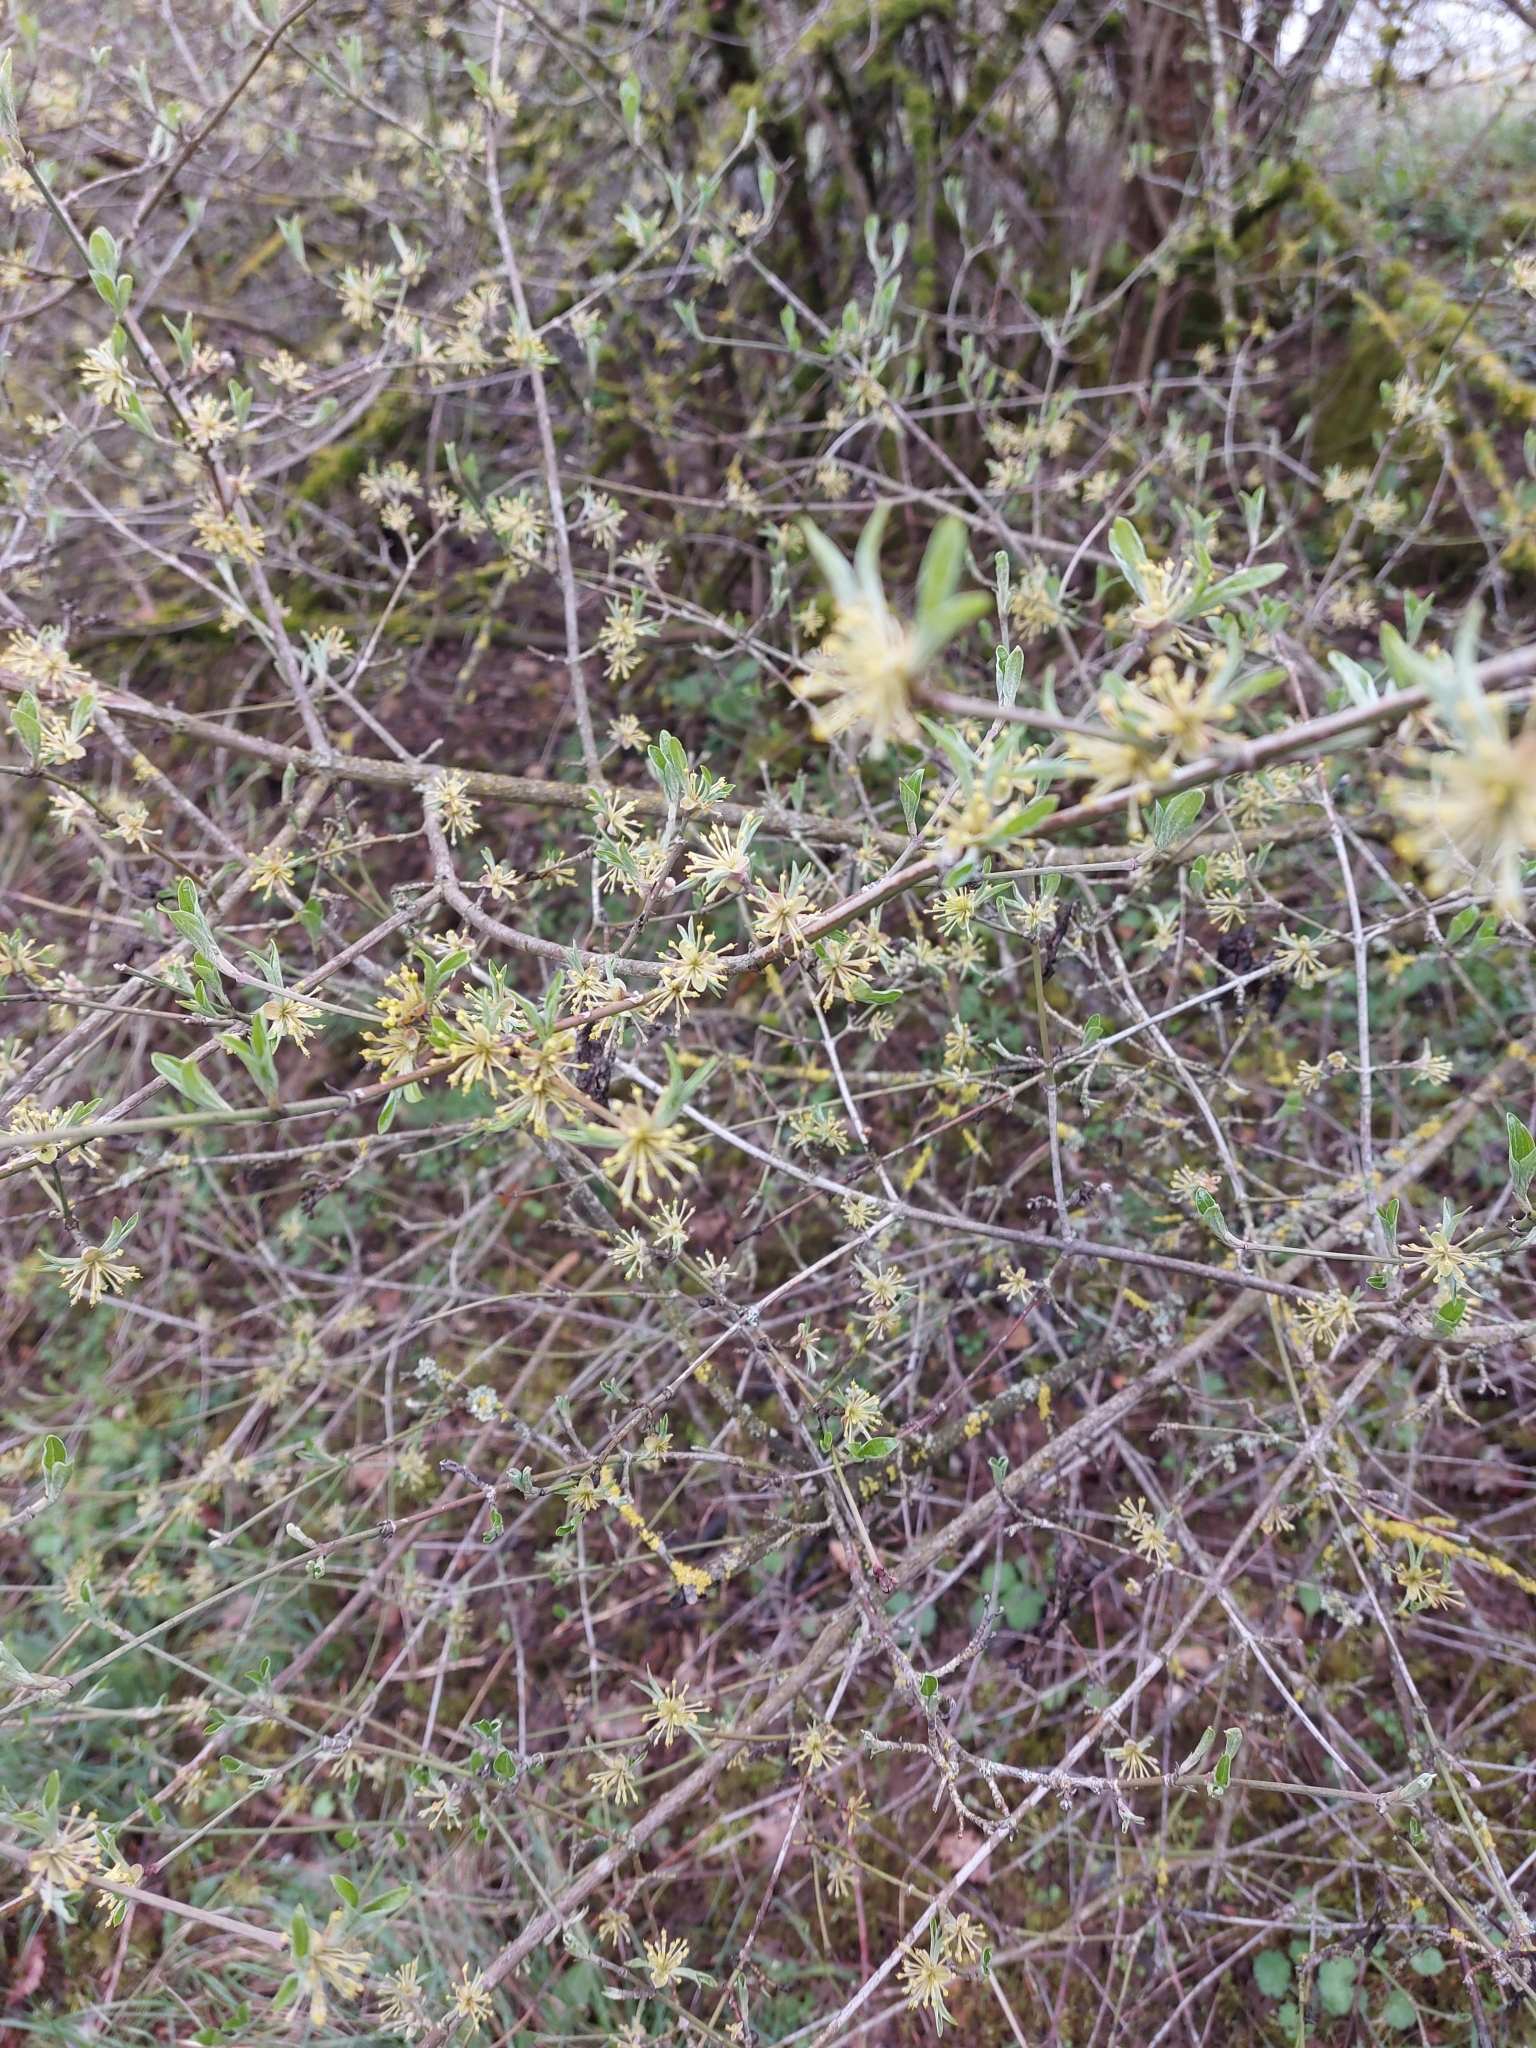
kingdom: Plantae
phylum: Tracheophyta
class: Magnoliopsida
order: Cornales
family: Cornaceae
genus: Cornus
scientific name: Cornus mas
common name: Cornelian-cherry
